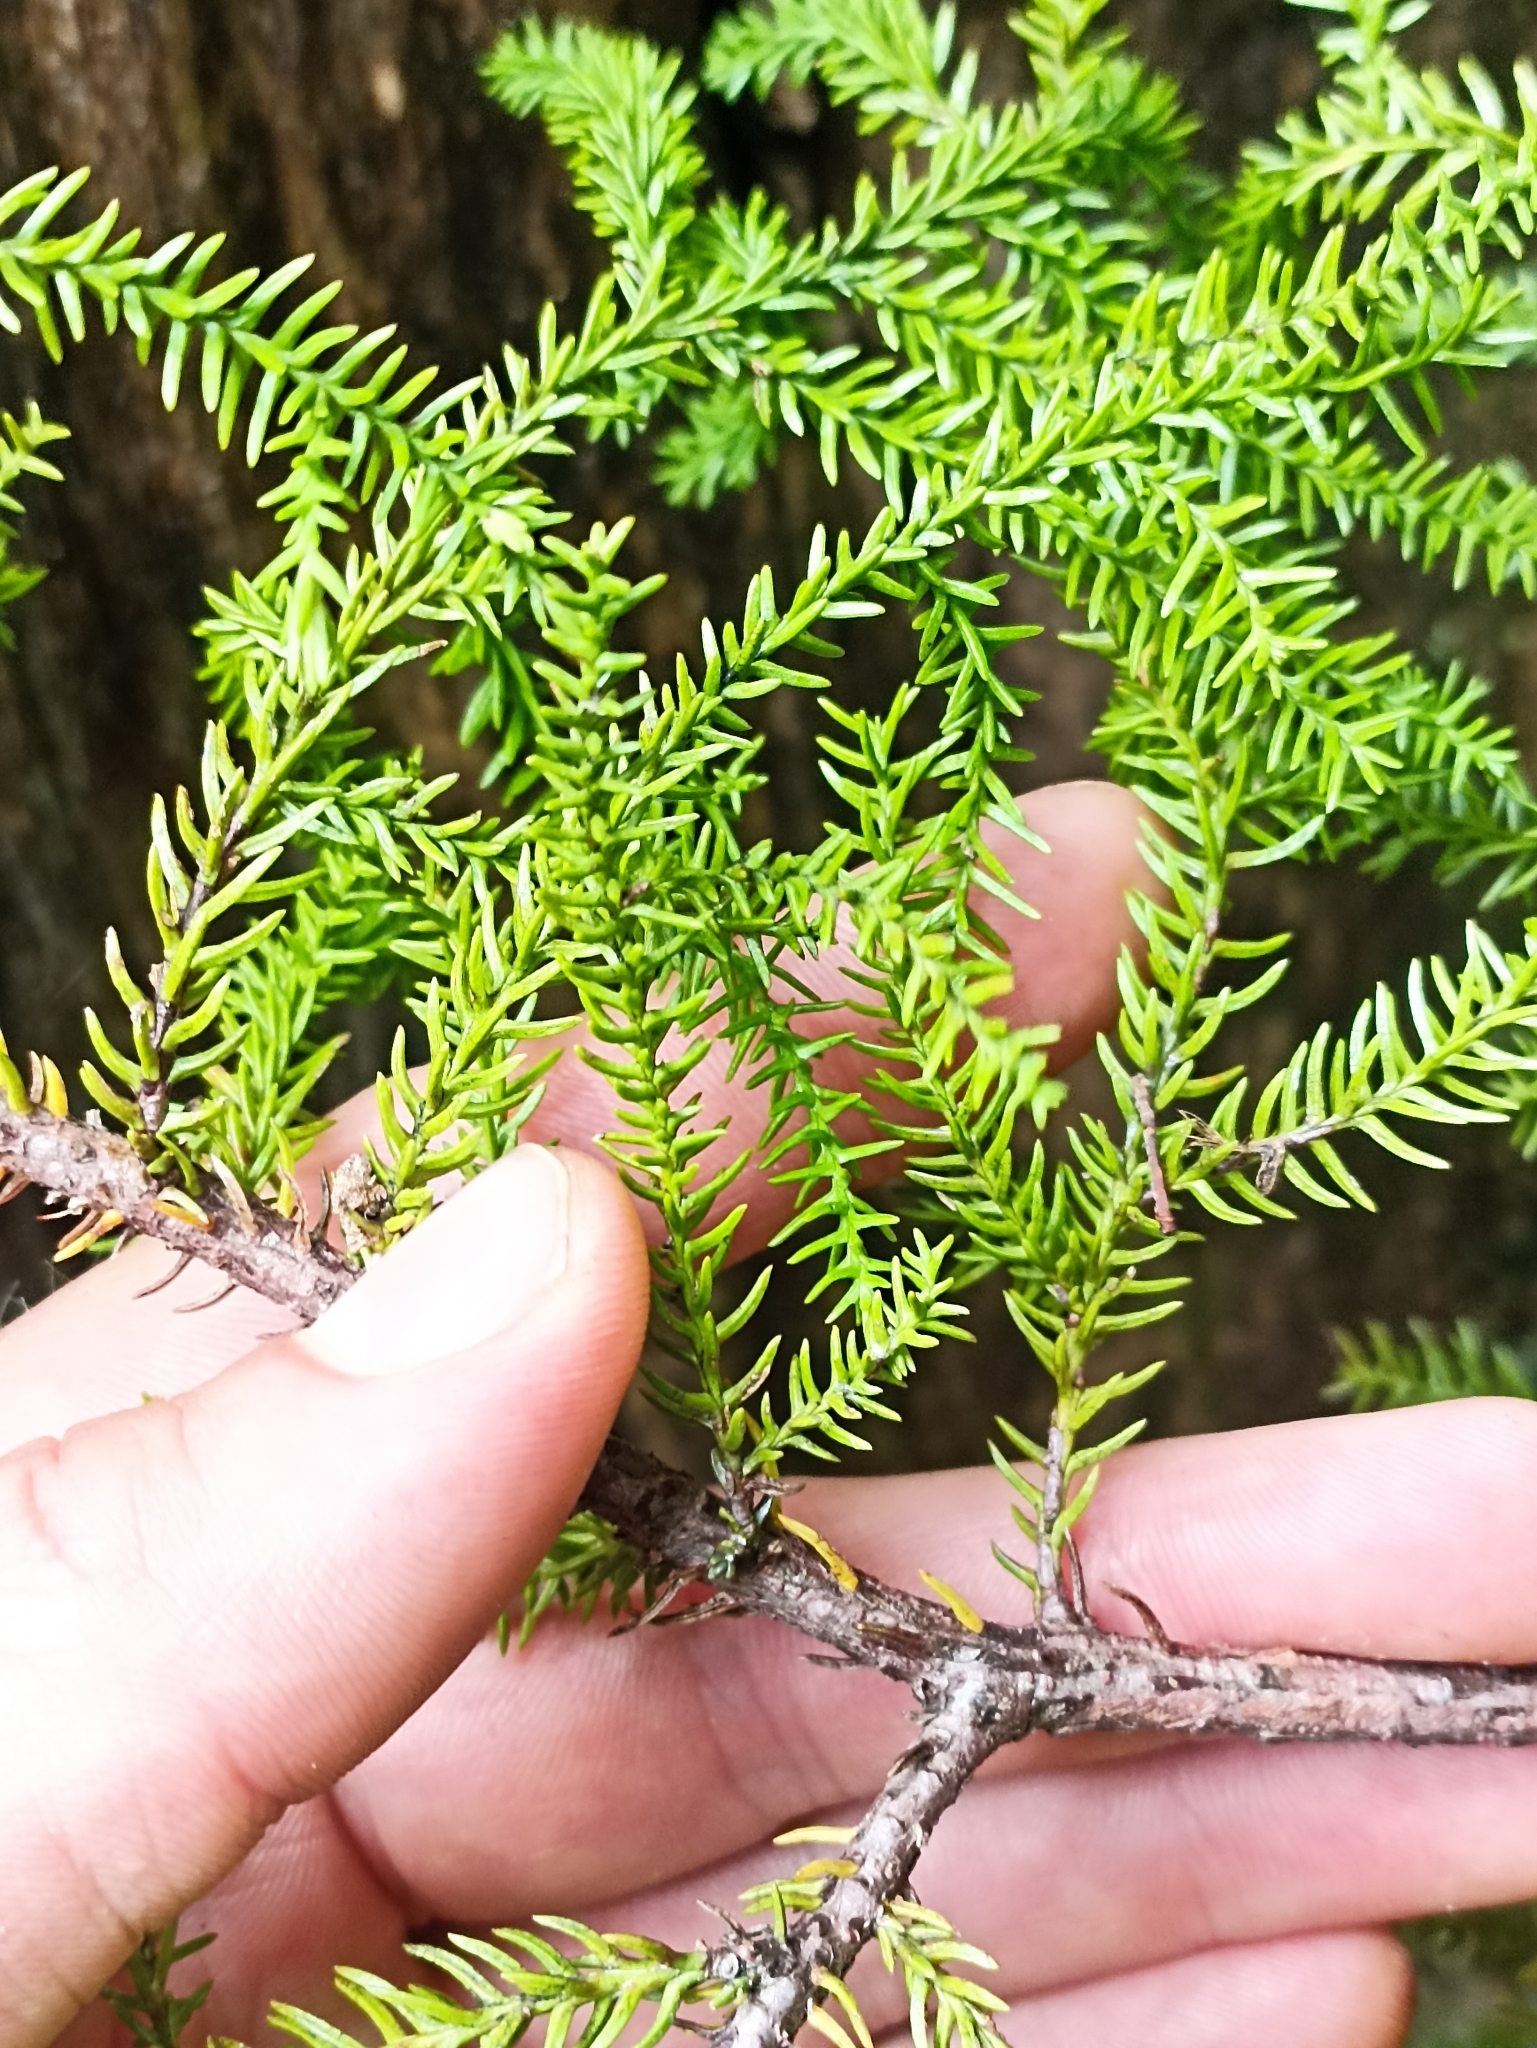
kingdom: Plantae
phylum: Tracheophyta
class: Pinopsida
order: Pinales
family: Podocarpaceae
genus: Lepidothamnus
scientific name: Lepidothamnus intermedius
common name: Yellow silver pine
